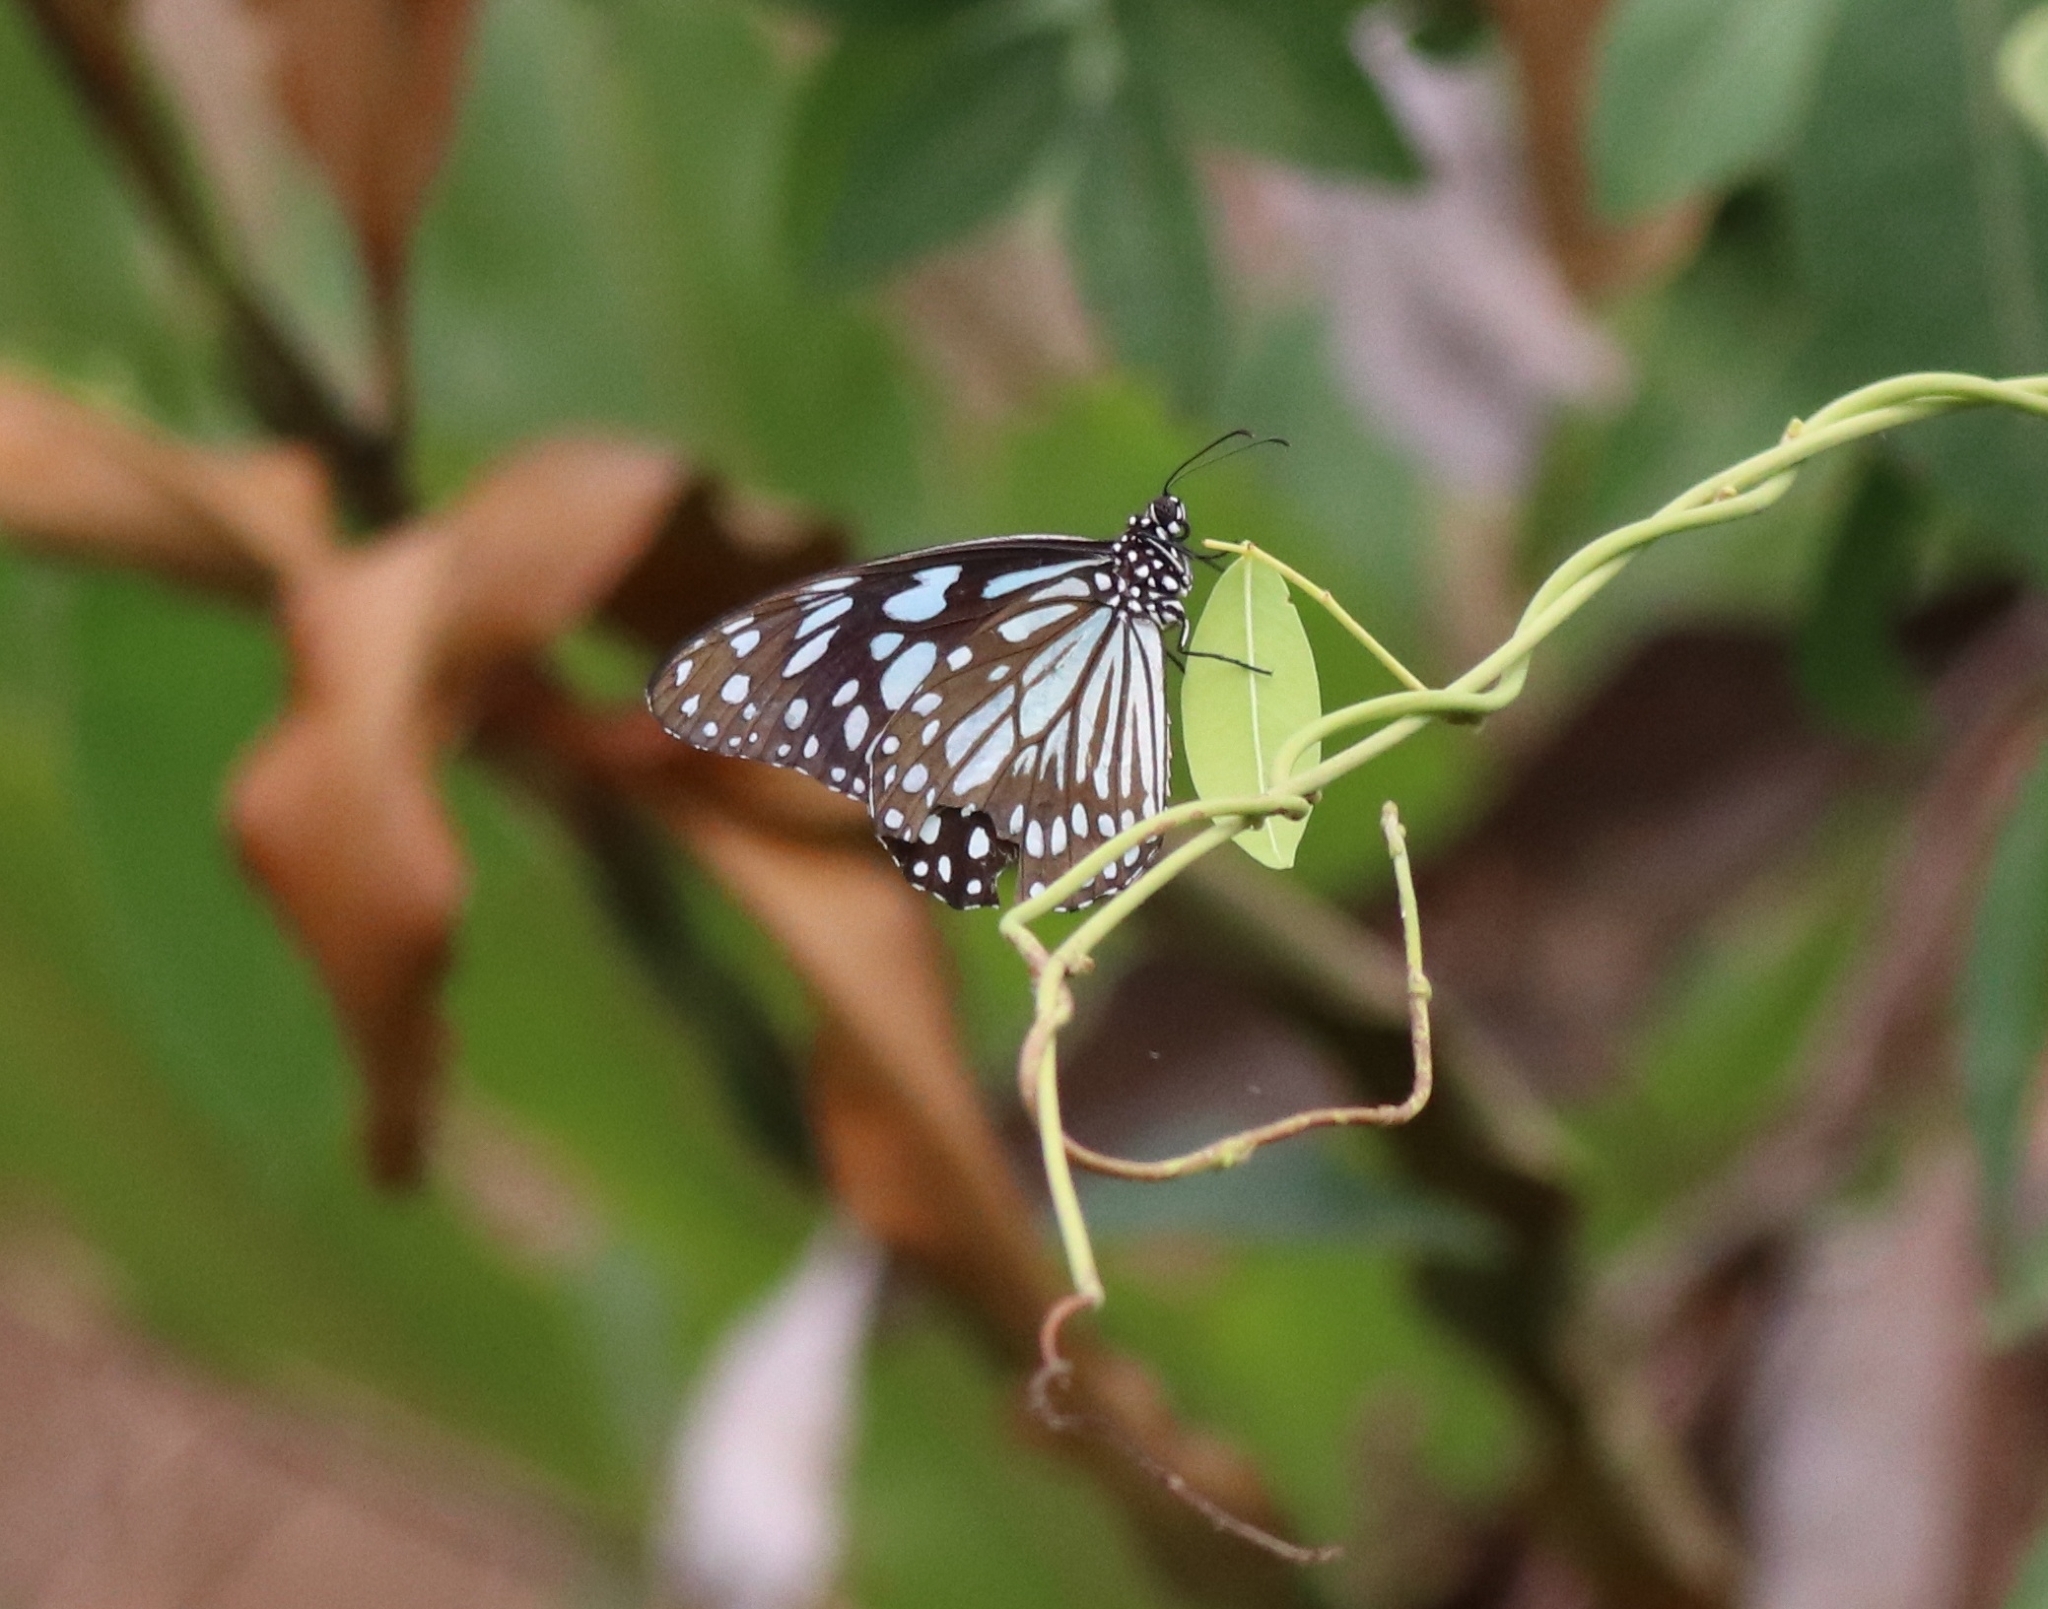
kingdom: Animalia
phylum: Arthropoda
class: Insecta
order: Lepidoptera
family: Nymphalidae
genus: Tirumala
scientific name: Tirumala limniace
